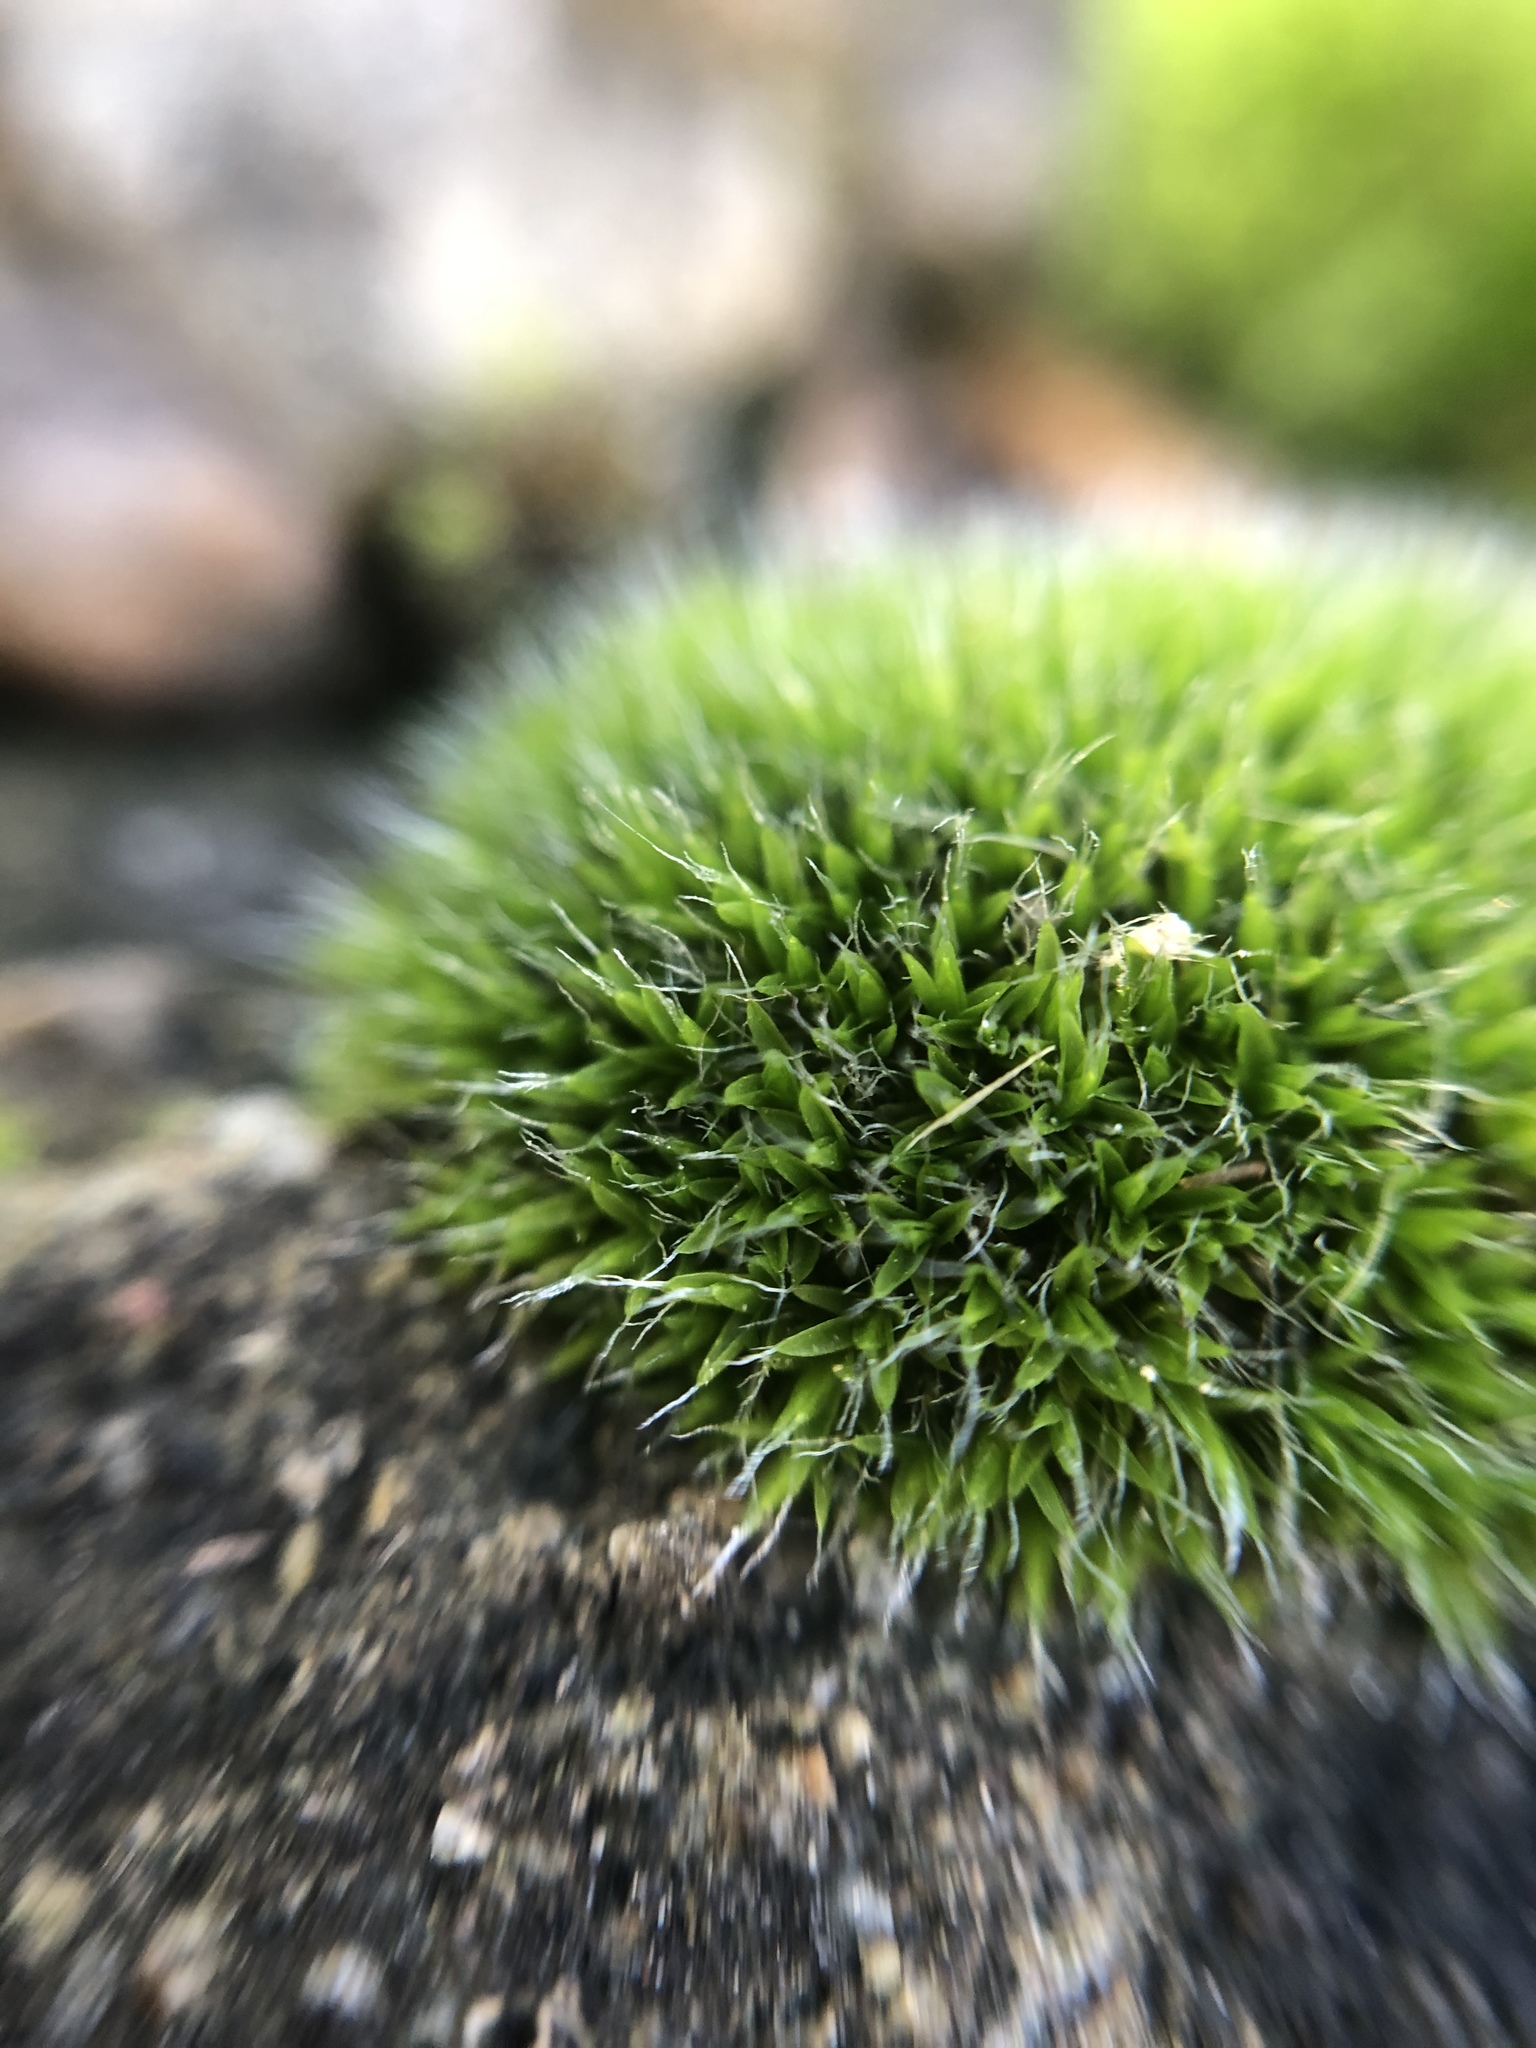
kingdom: Plantae
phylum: Bryophyta
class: Bryopsida
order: Grimmiales
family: Grimmiaceae
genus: Grimmia
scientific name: Grimmia pulvinata
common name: Grey-cushioned grimmia
